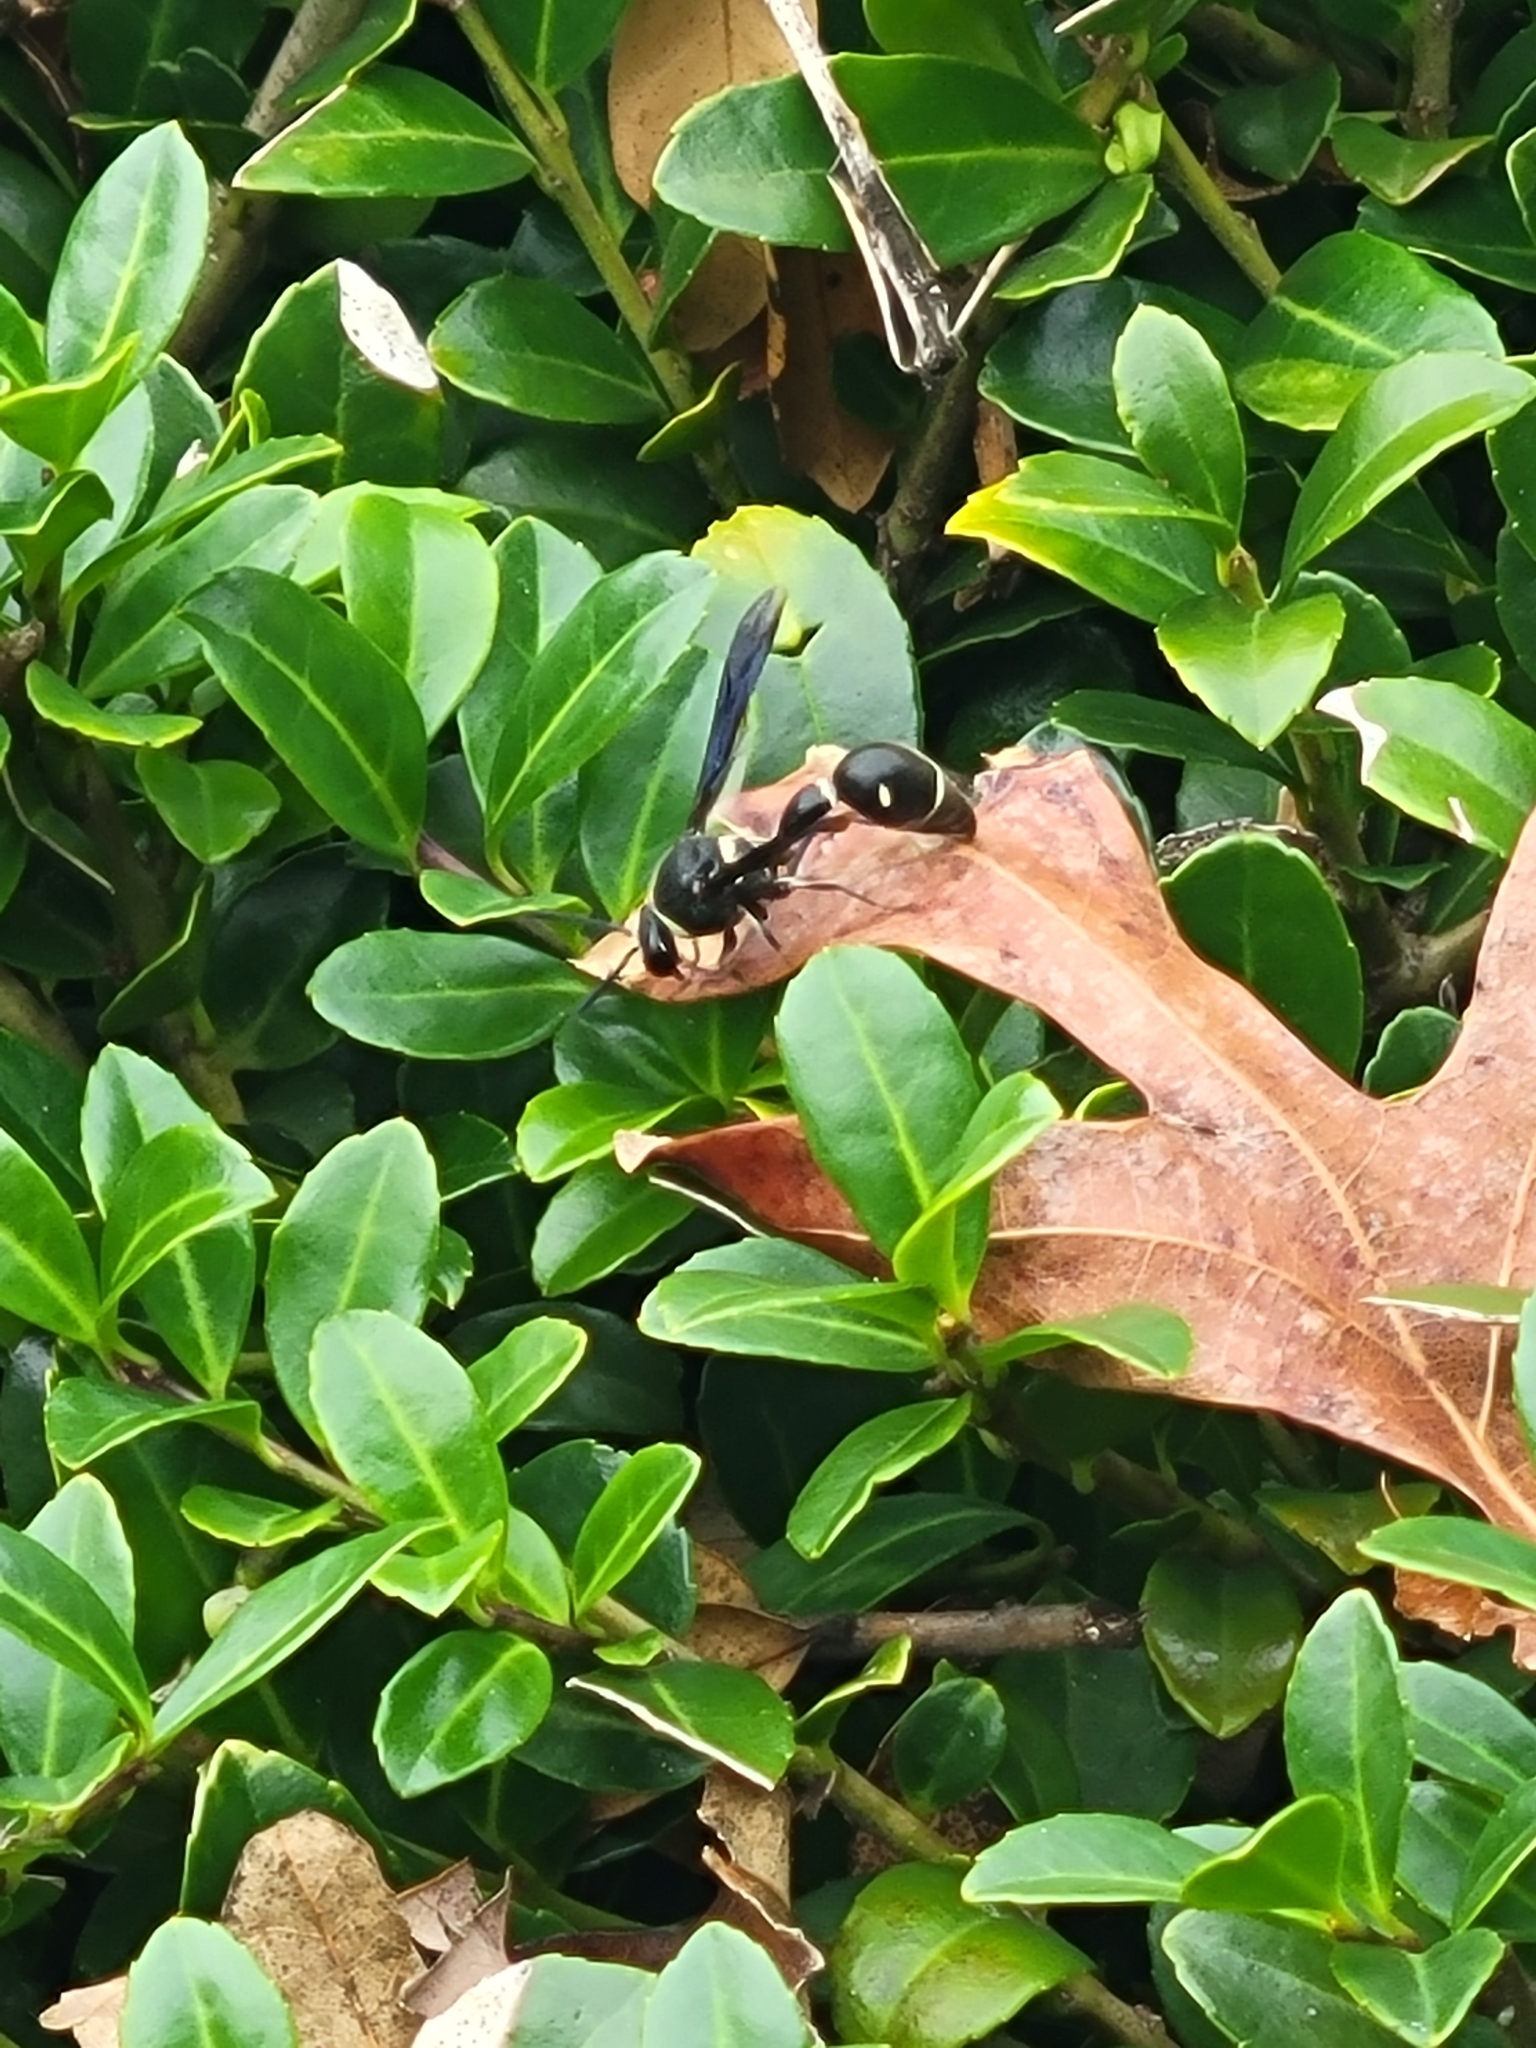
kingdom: Animalia
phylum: Arthropoda
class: Insecta
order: Hymenoptera
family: Vespidae
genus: Eumenes
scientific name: Eumenes fraternus
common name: Fraternal potter wasp
